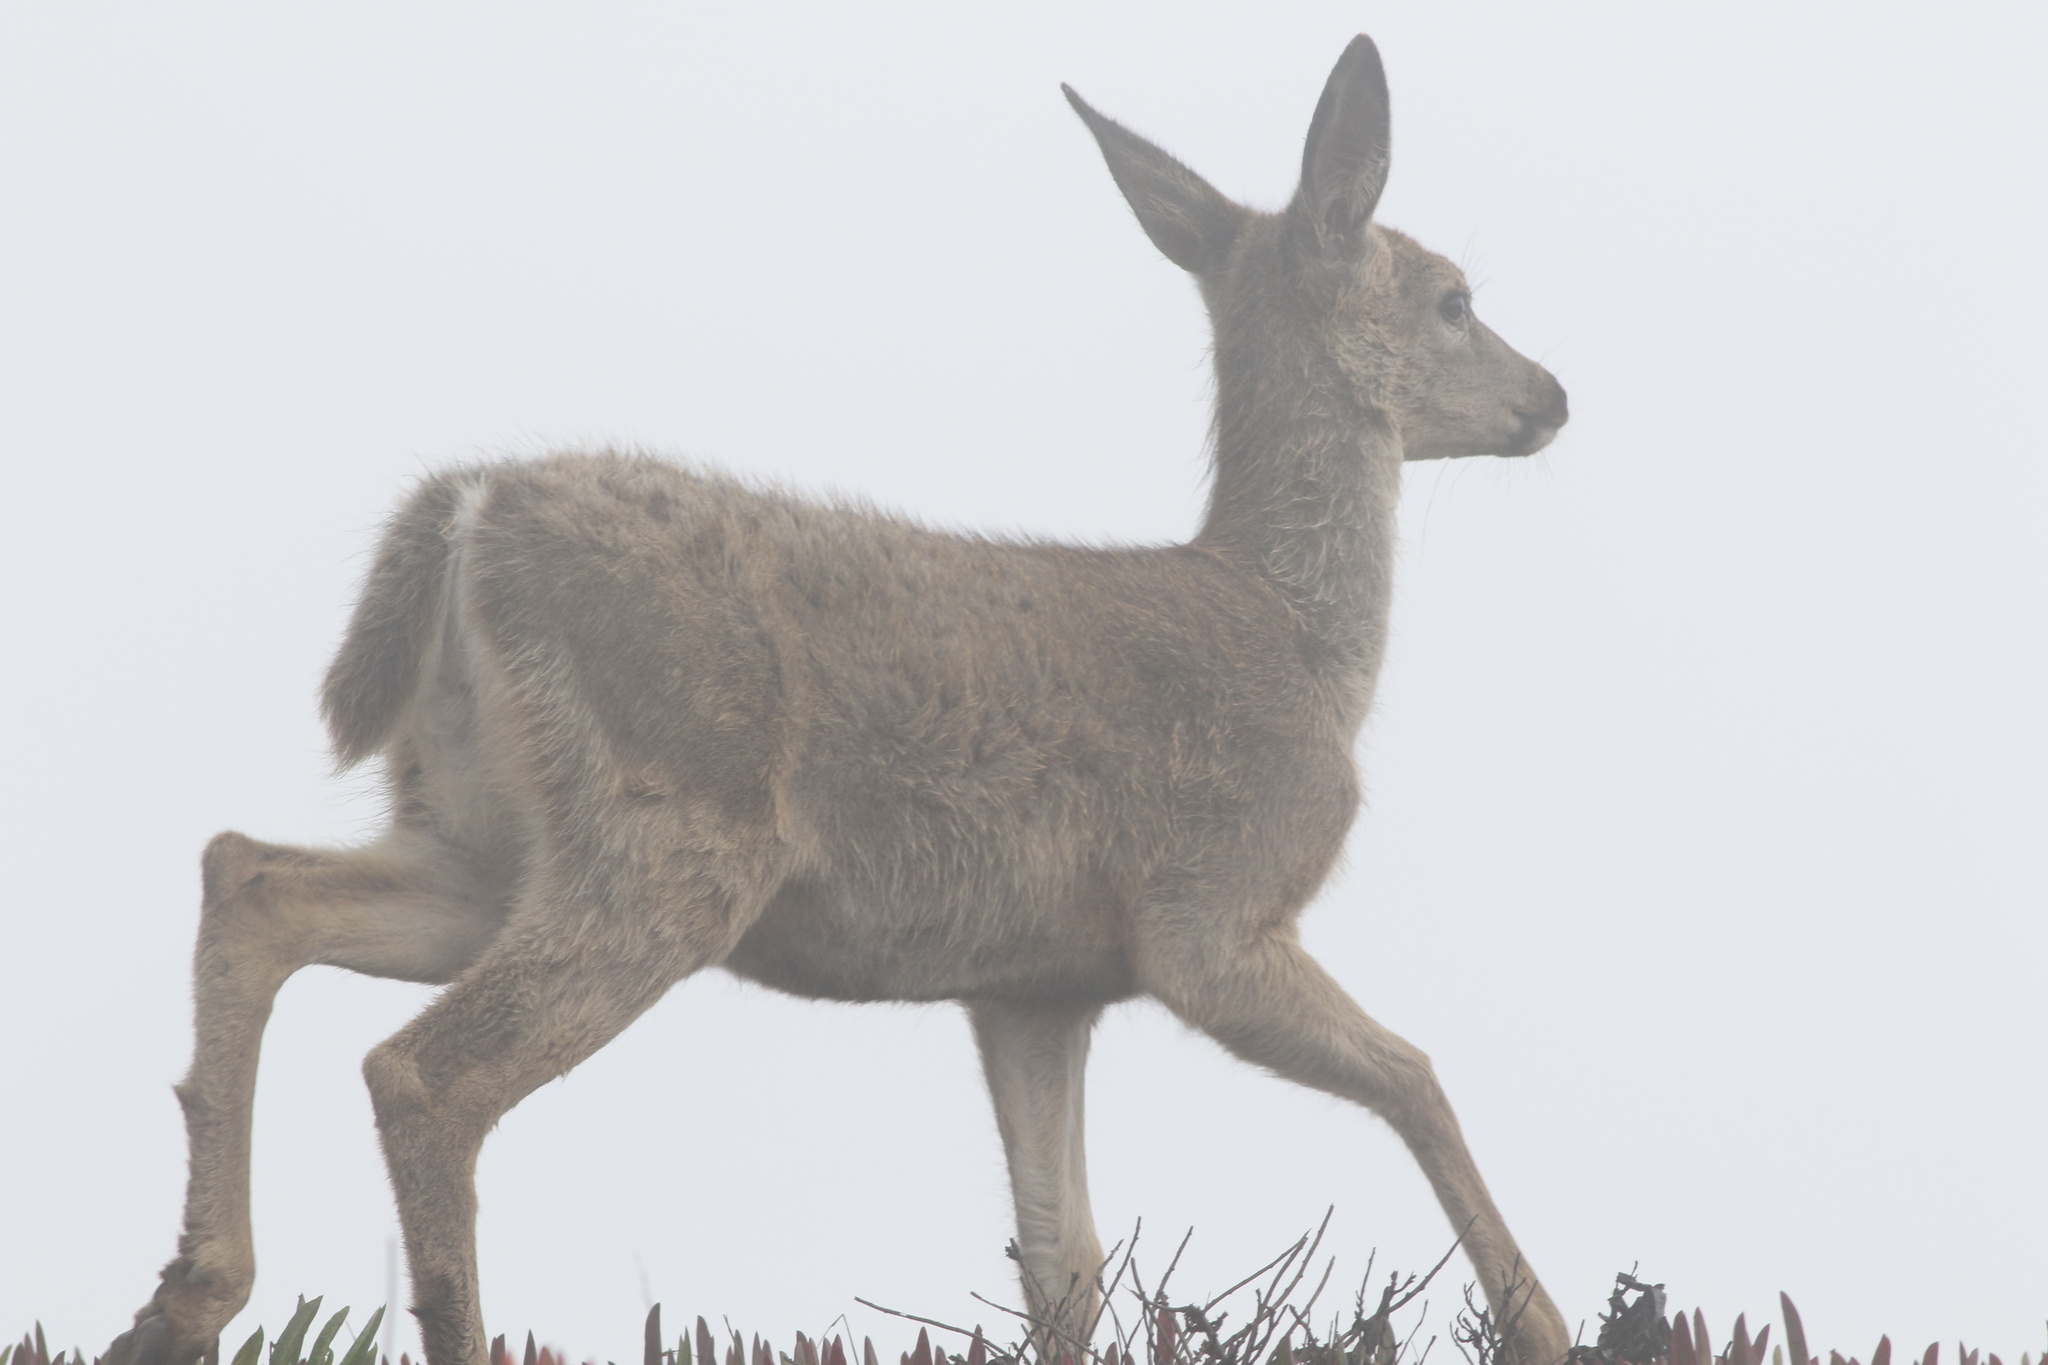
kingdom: Animalia
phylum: Chordata
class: Mammalia
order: Artiodactyla
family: Cervidae
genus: Odocoileus
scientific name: Odocoileus hemionus
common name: Mule deer
